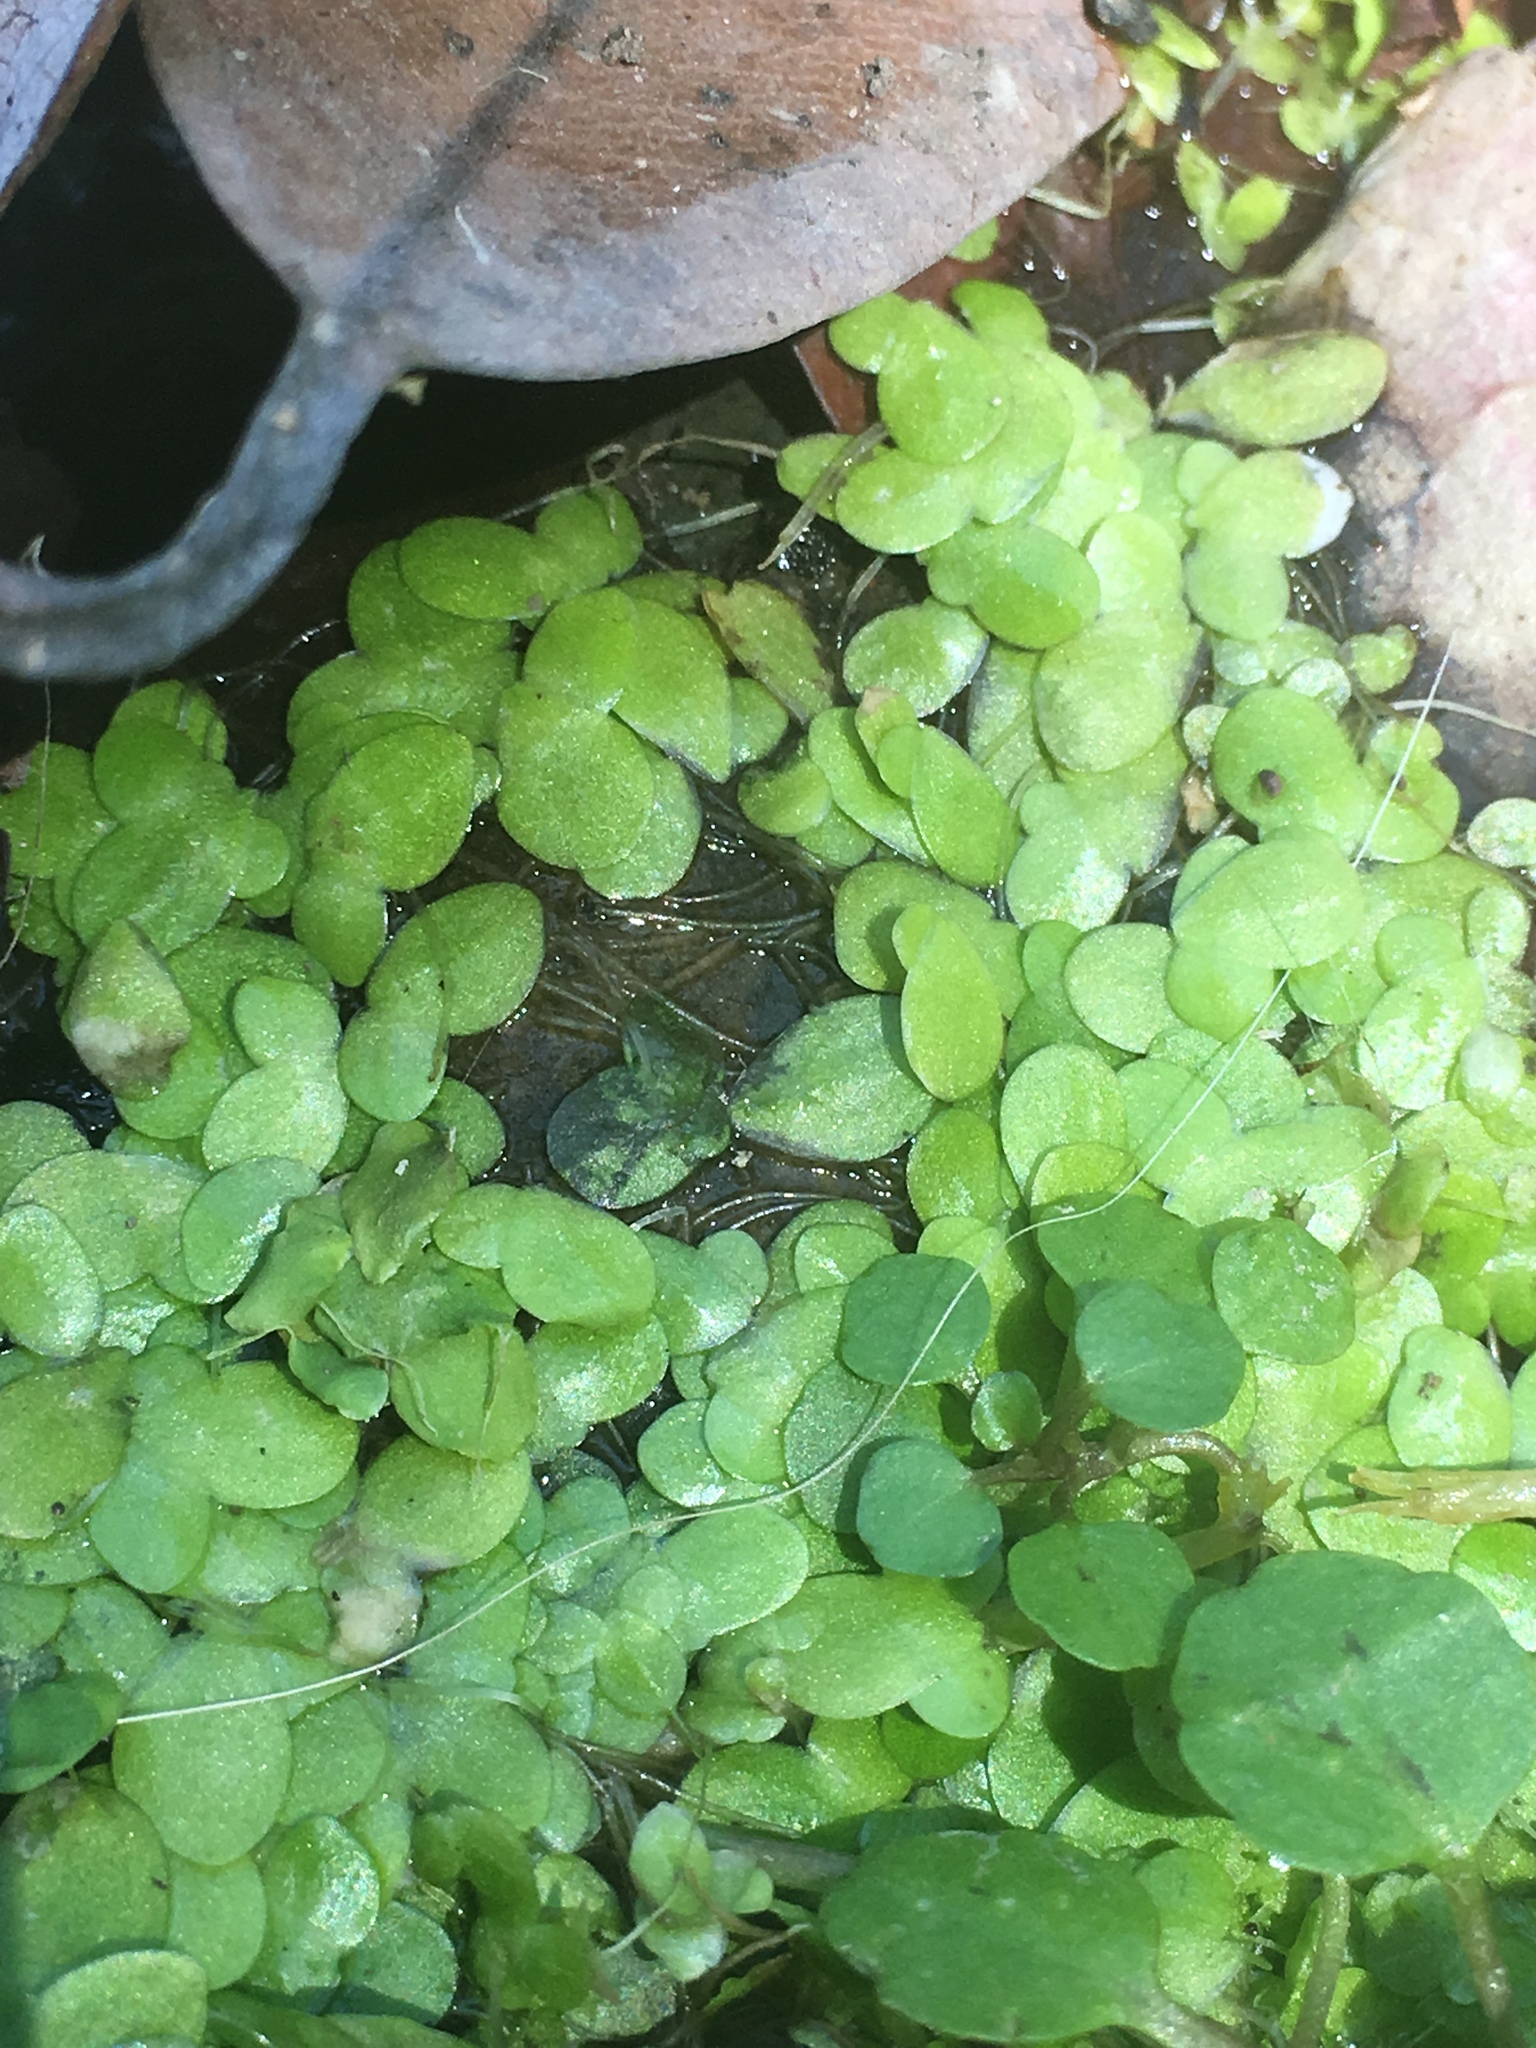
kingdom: Plantae
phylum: Tracheophyta
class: Liliopsida
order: Alismatales
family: Araceae
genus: Lemna
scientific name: Lemna minor
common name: Common duckweed
